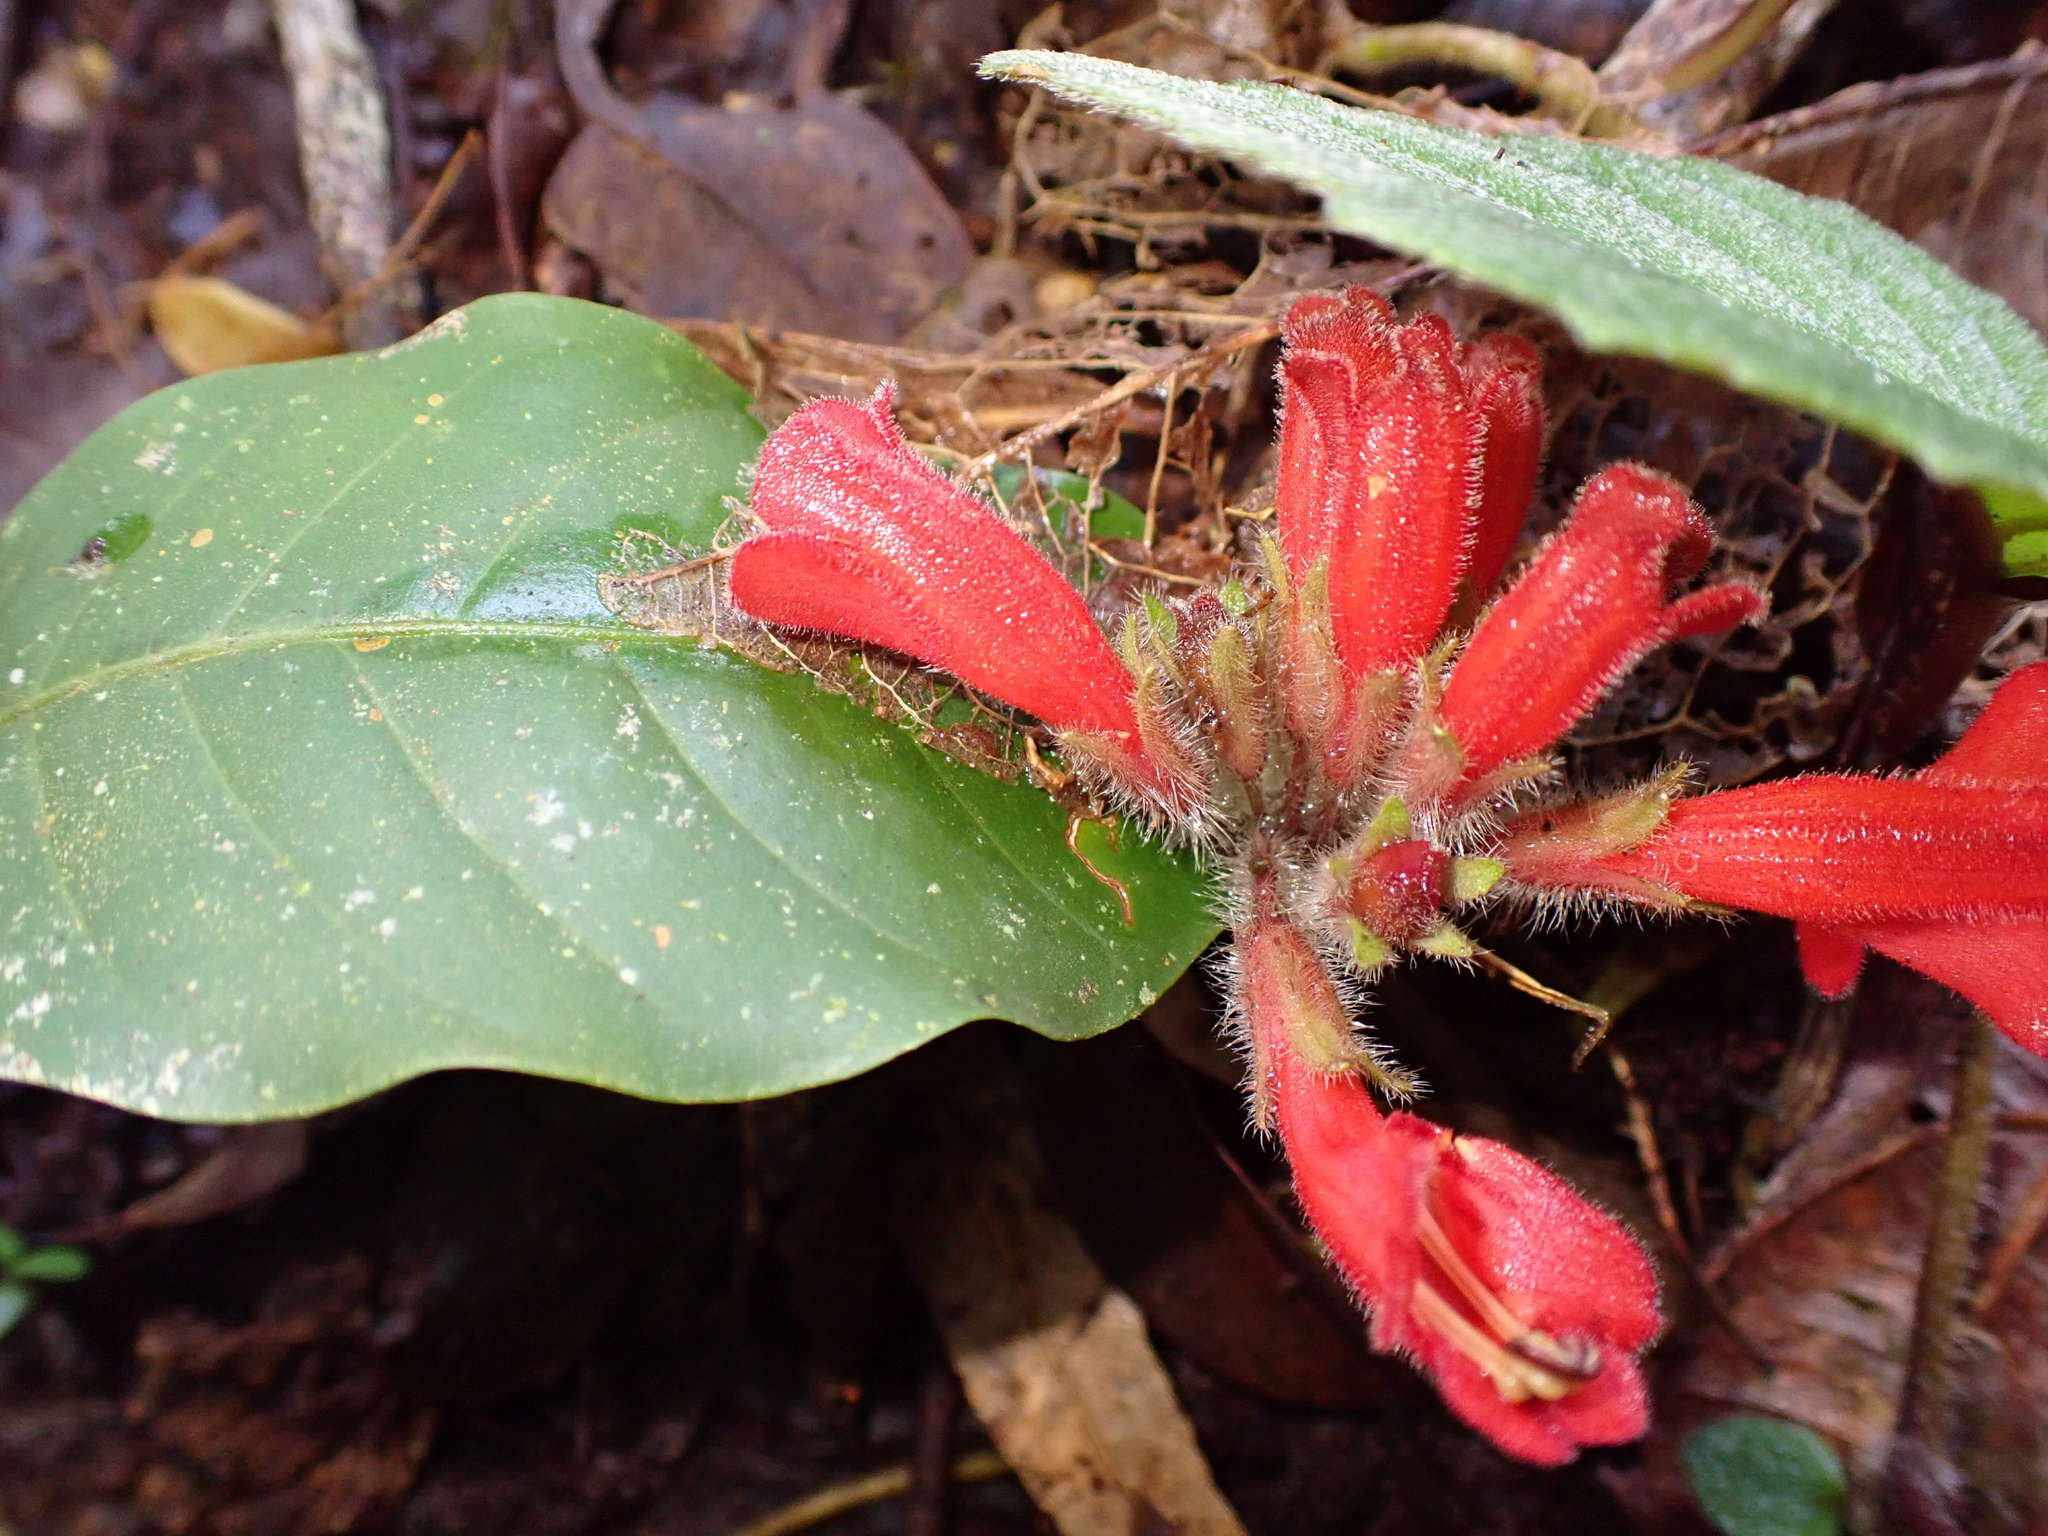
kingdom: Plantae
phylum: Tracheophyta
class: Magnoliopsida
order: Lamiales
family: Gesneriaceae
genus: Agalmyla
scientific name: Agalmyla hirta
